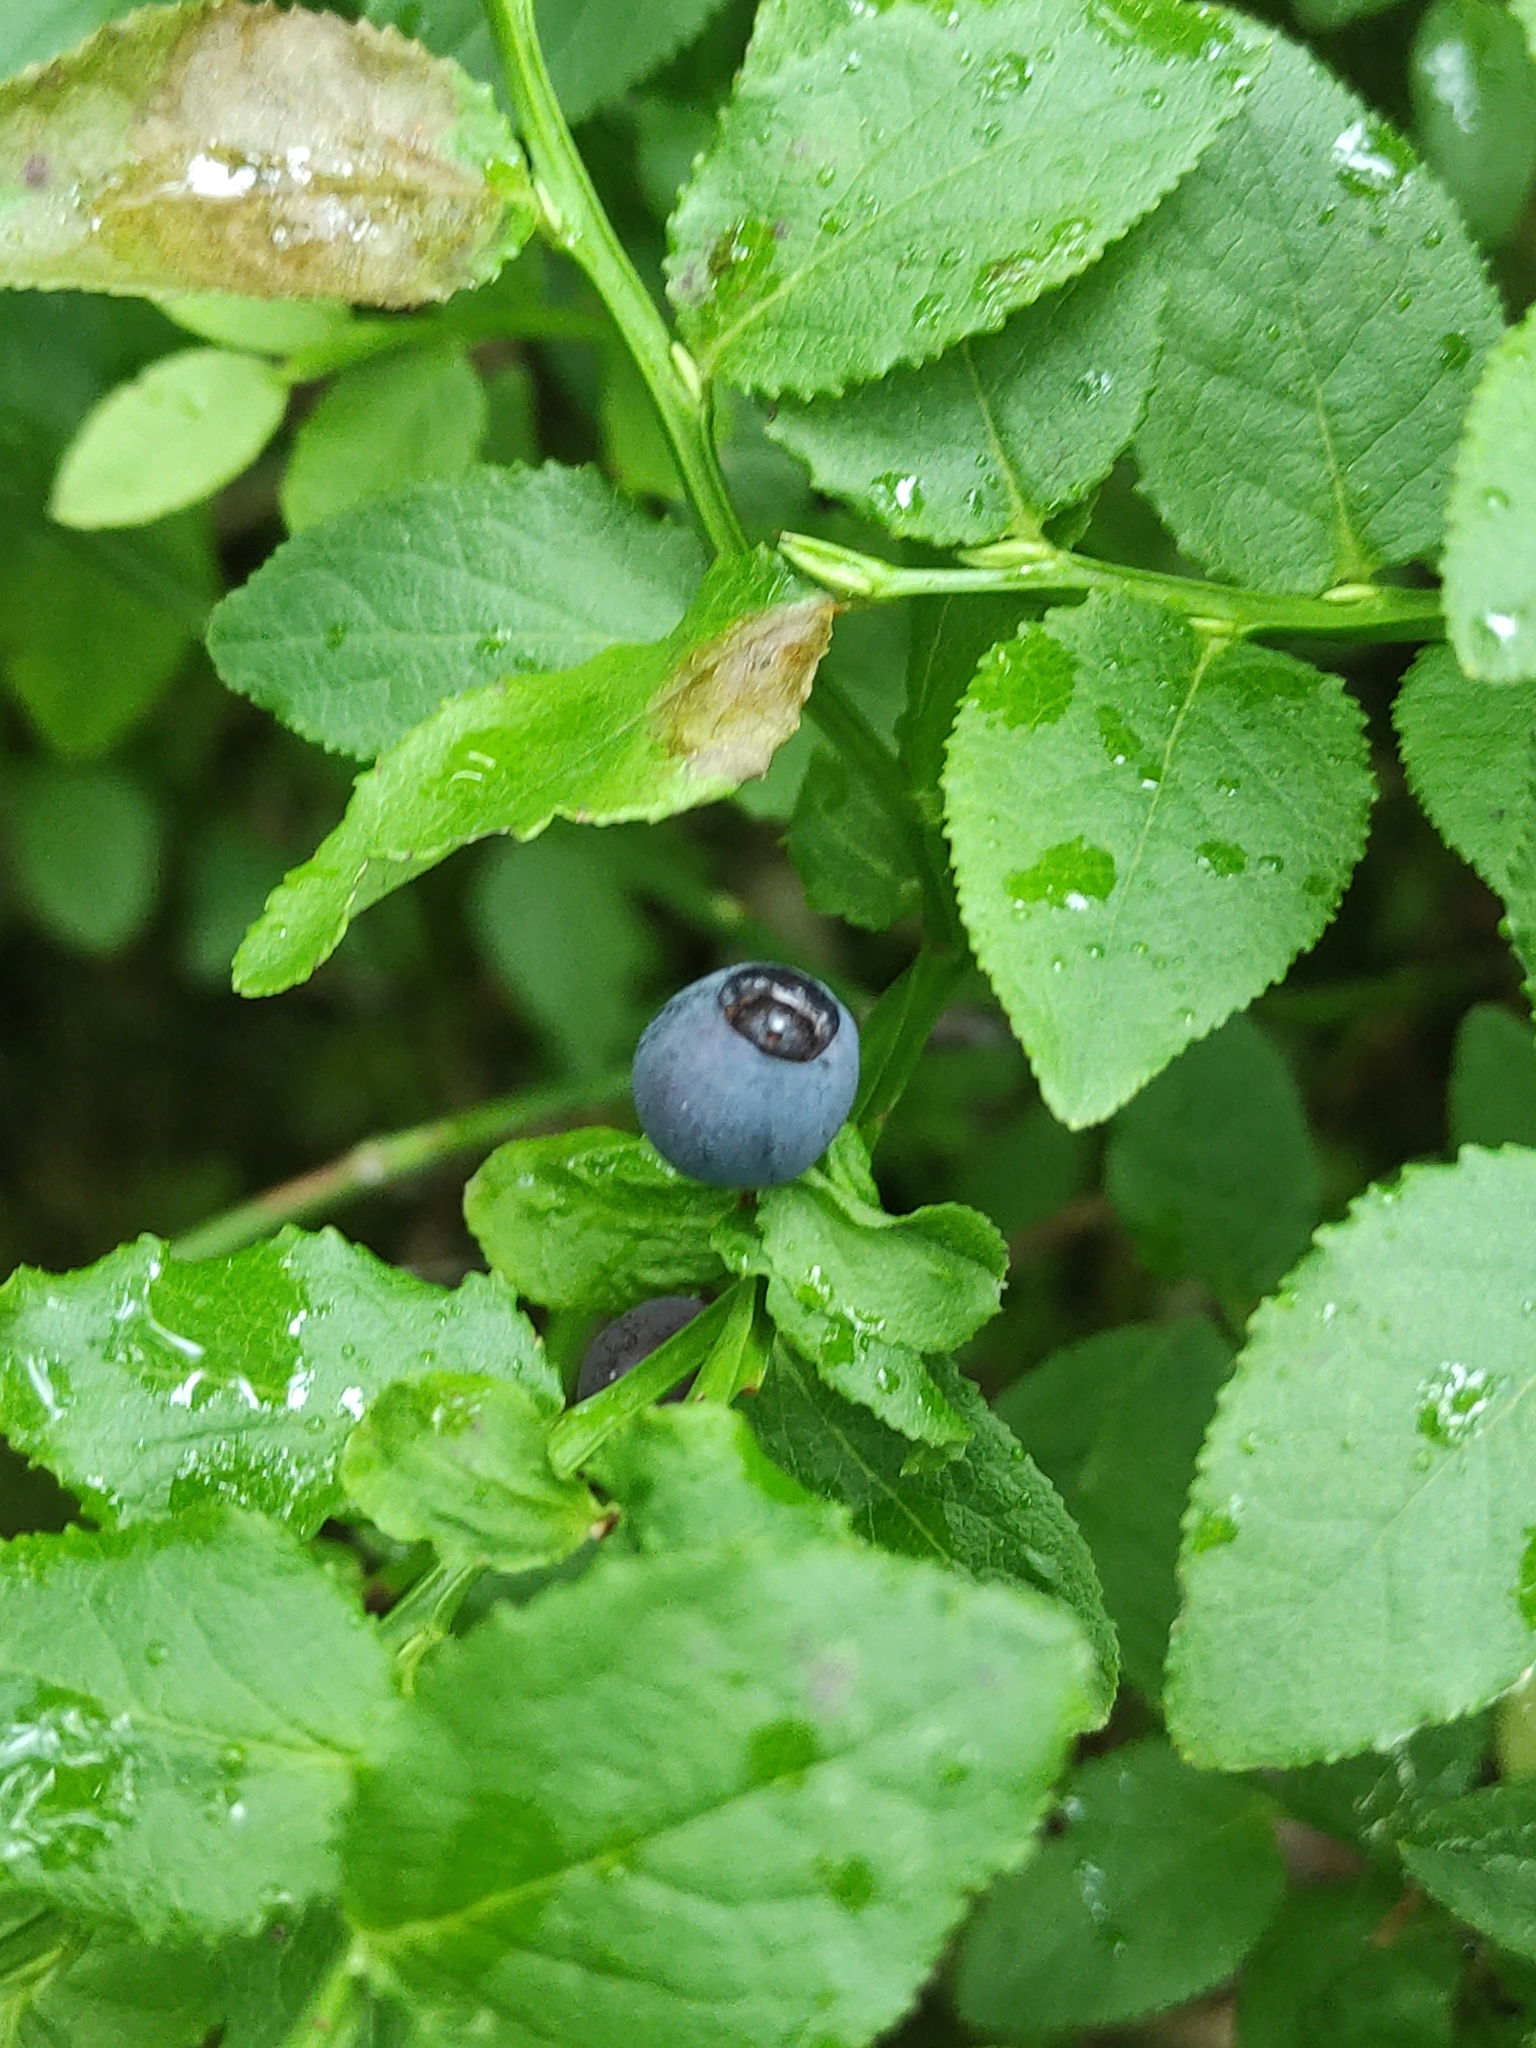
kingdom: Plantae
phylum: Tracheophyta
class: Magnoliopsida
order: Ericales
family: Ericaceae
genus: Vaccinium
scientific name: Vaccinium myrtillus
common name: Bilberry
